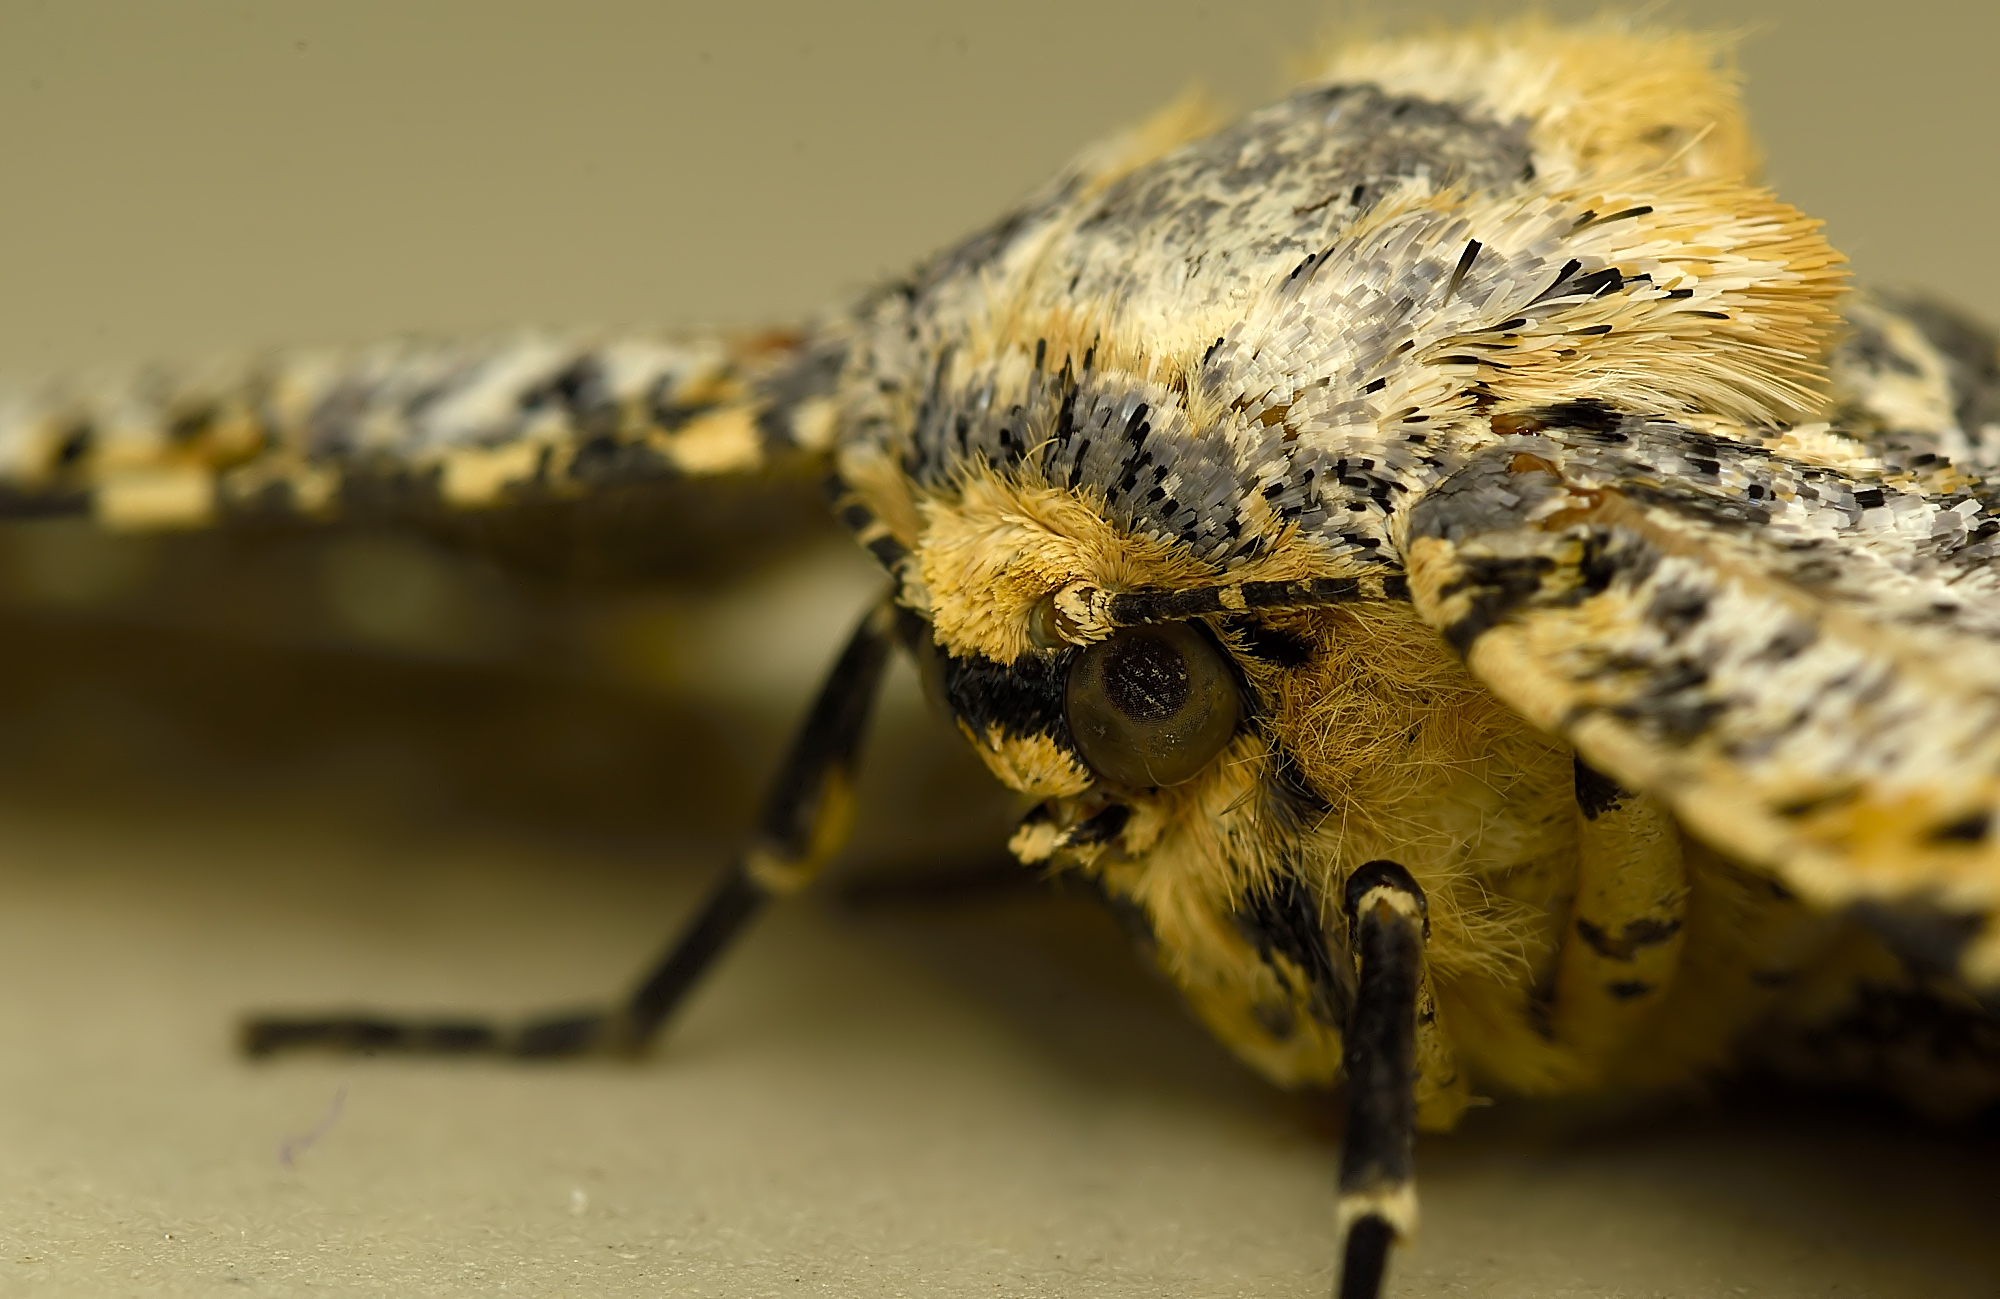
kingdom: Animalia
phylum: Arthropoda
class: Insecta
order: Lepidoptera
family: Geometridae
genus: Biston
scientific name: Biston suppressaria
